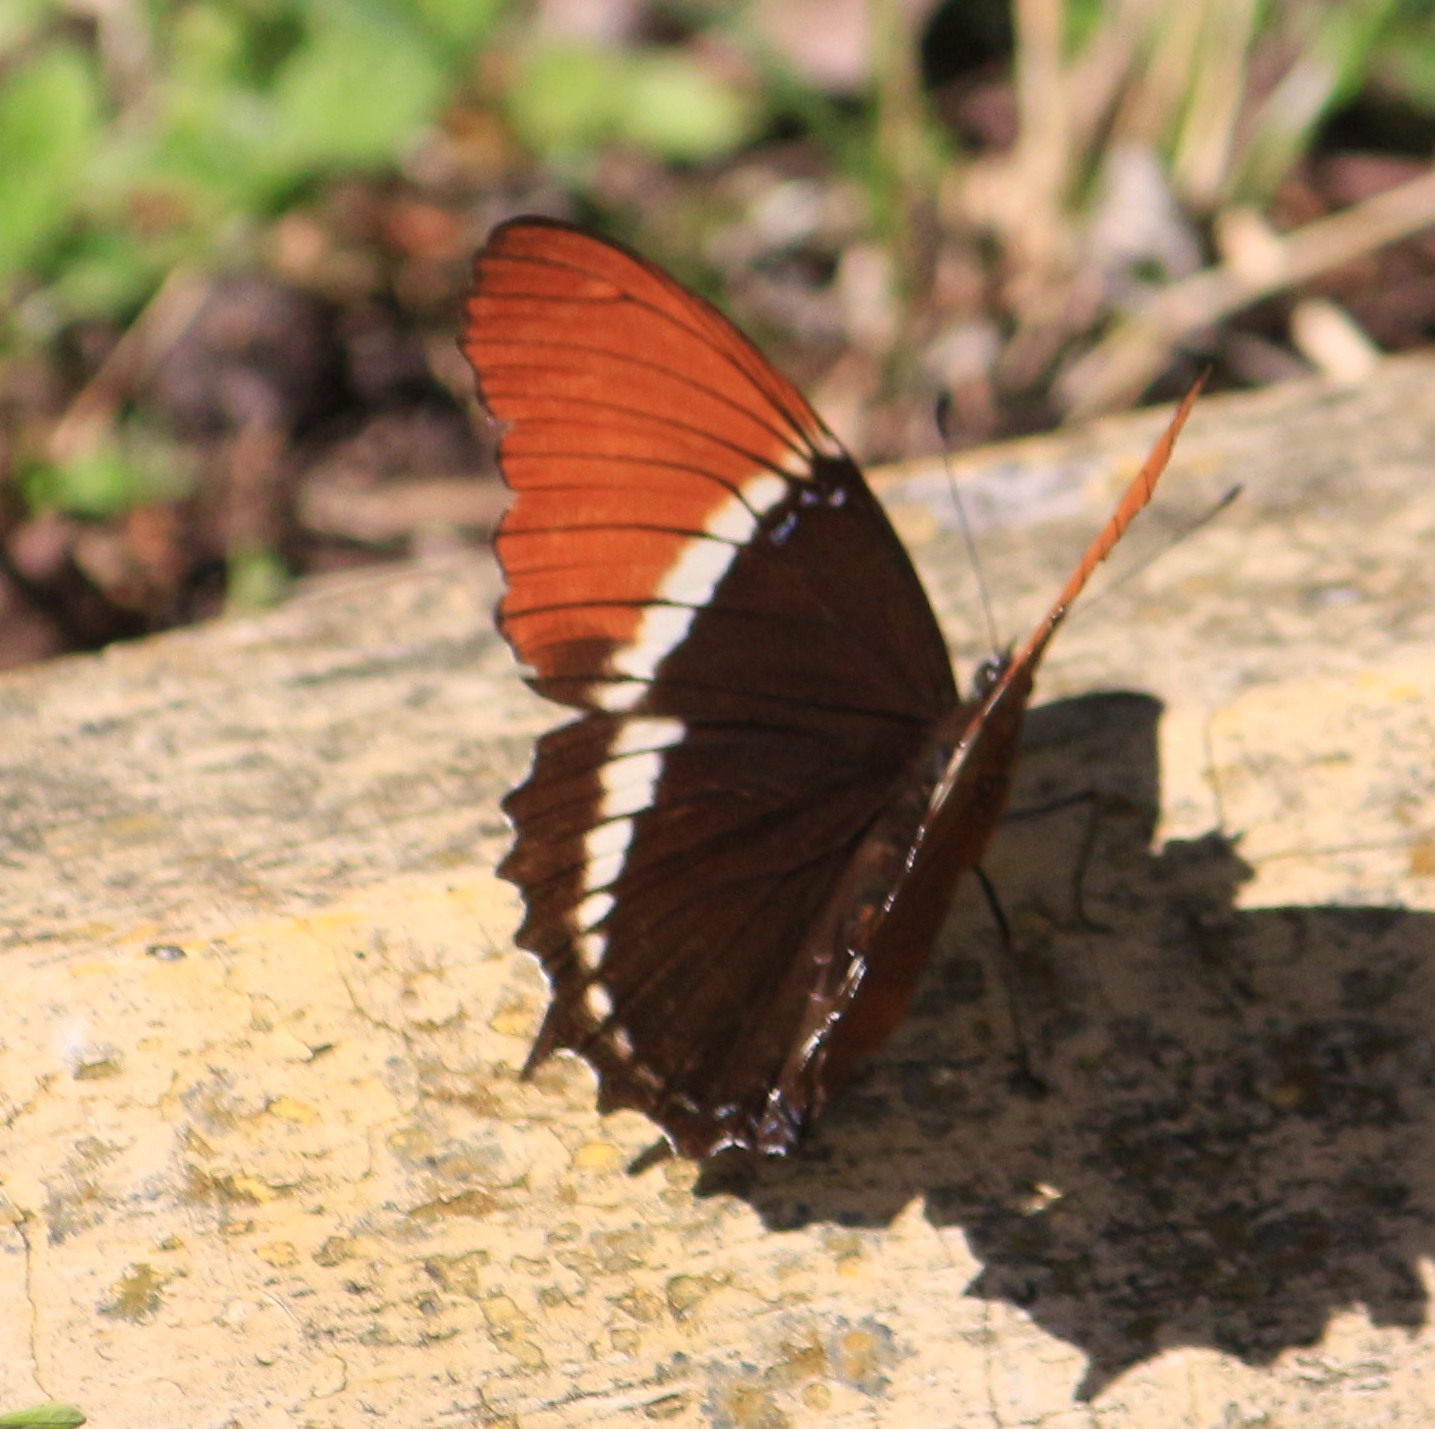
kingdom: Animalia
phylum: Arthropoda
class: Insecta
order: Lepidoptera
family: Nymphalidae
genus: Siproeta
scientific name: Siproeta epaphus
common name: Rusty-tipped page
